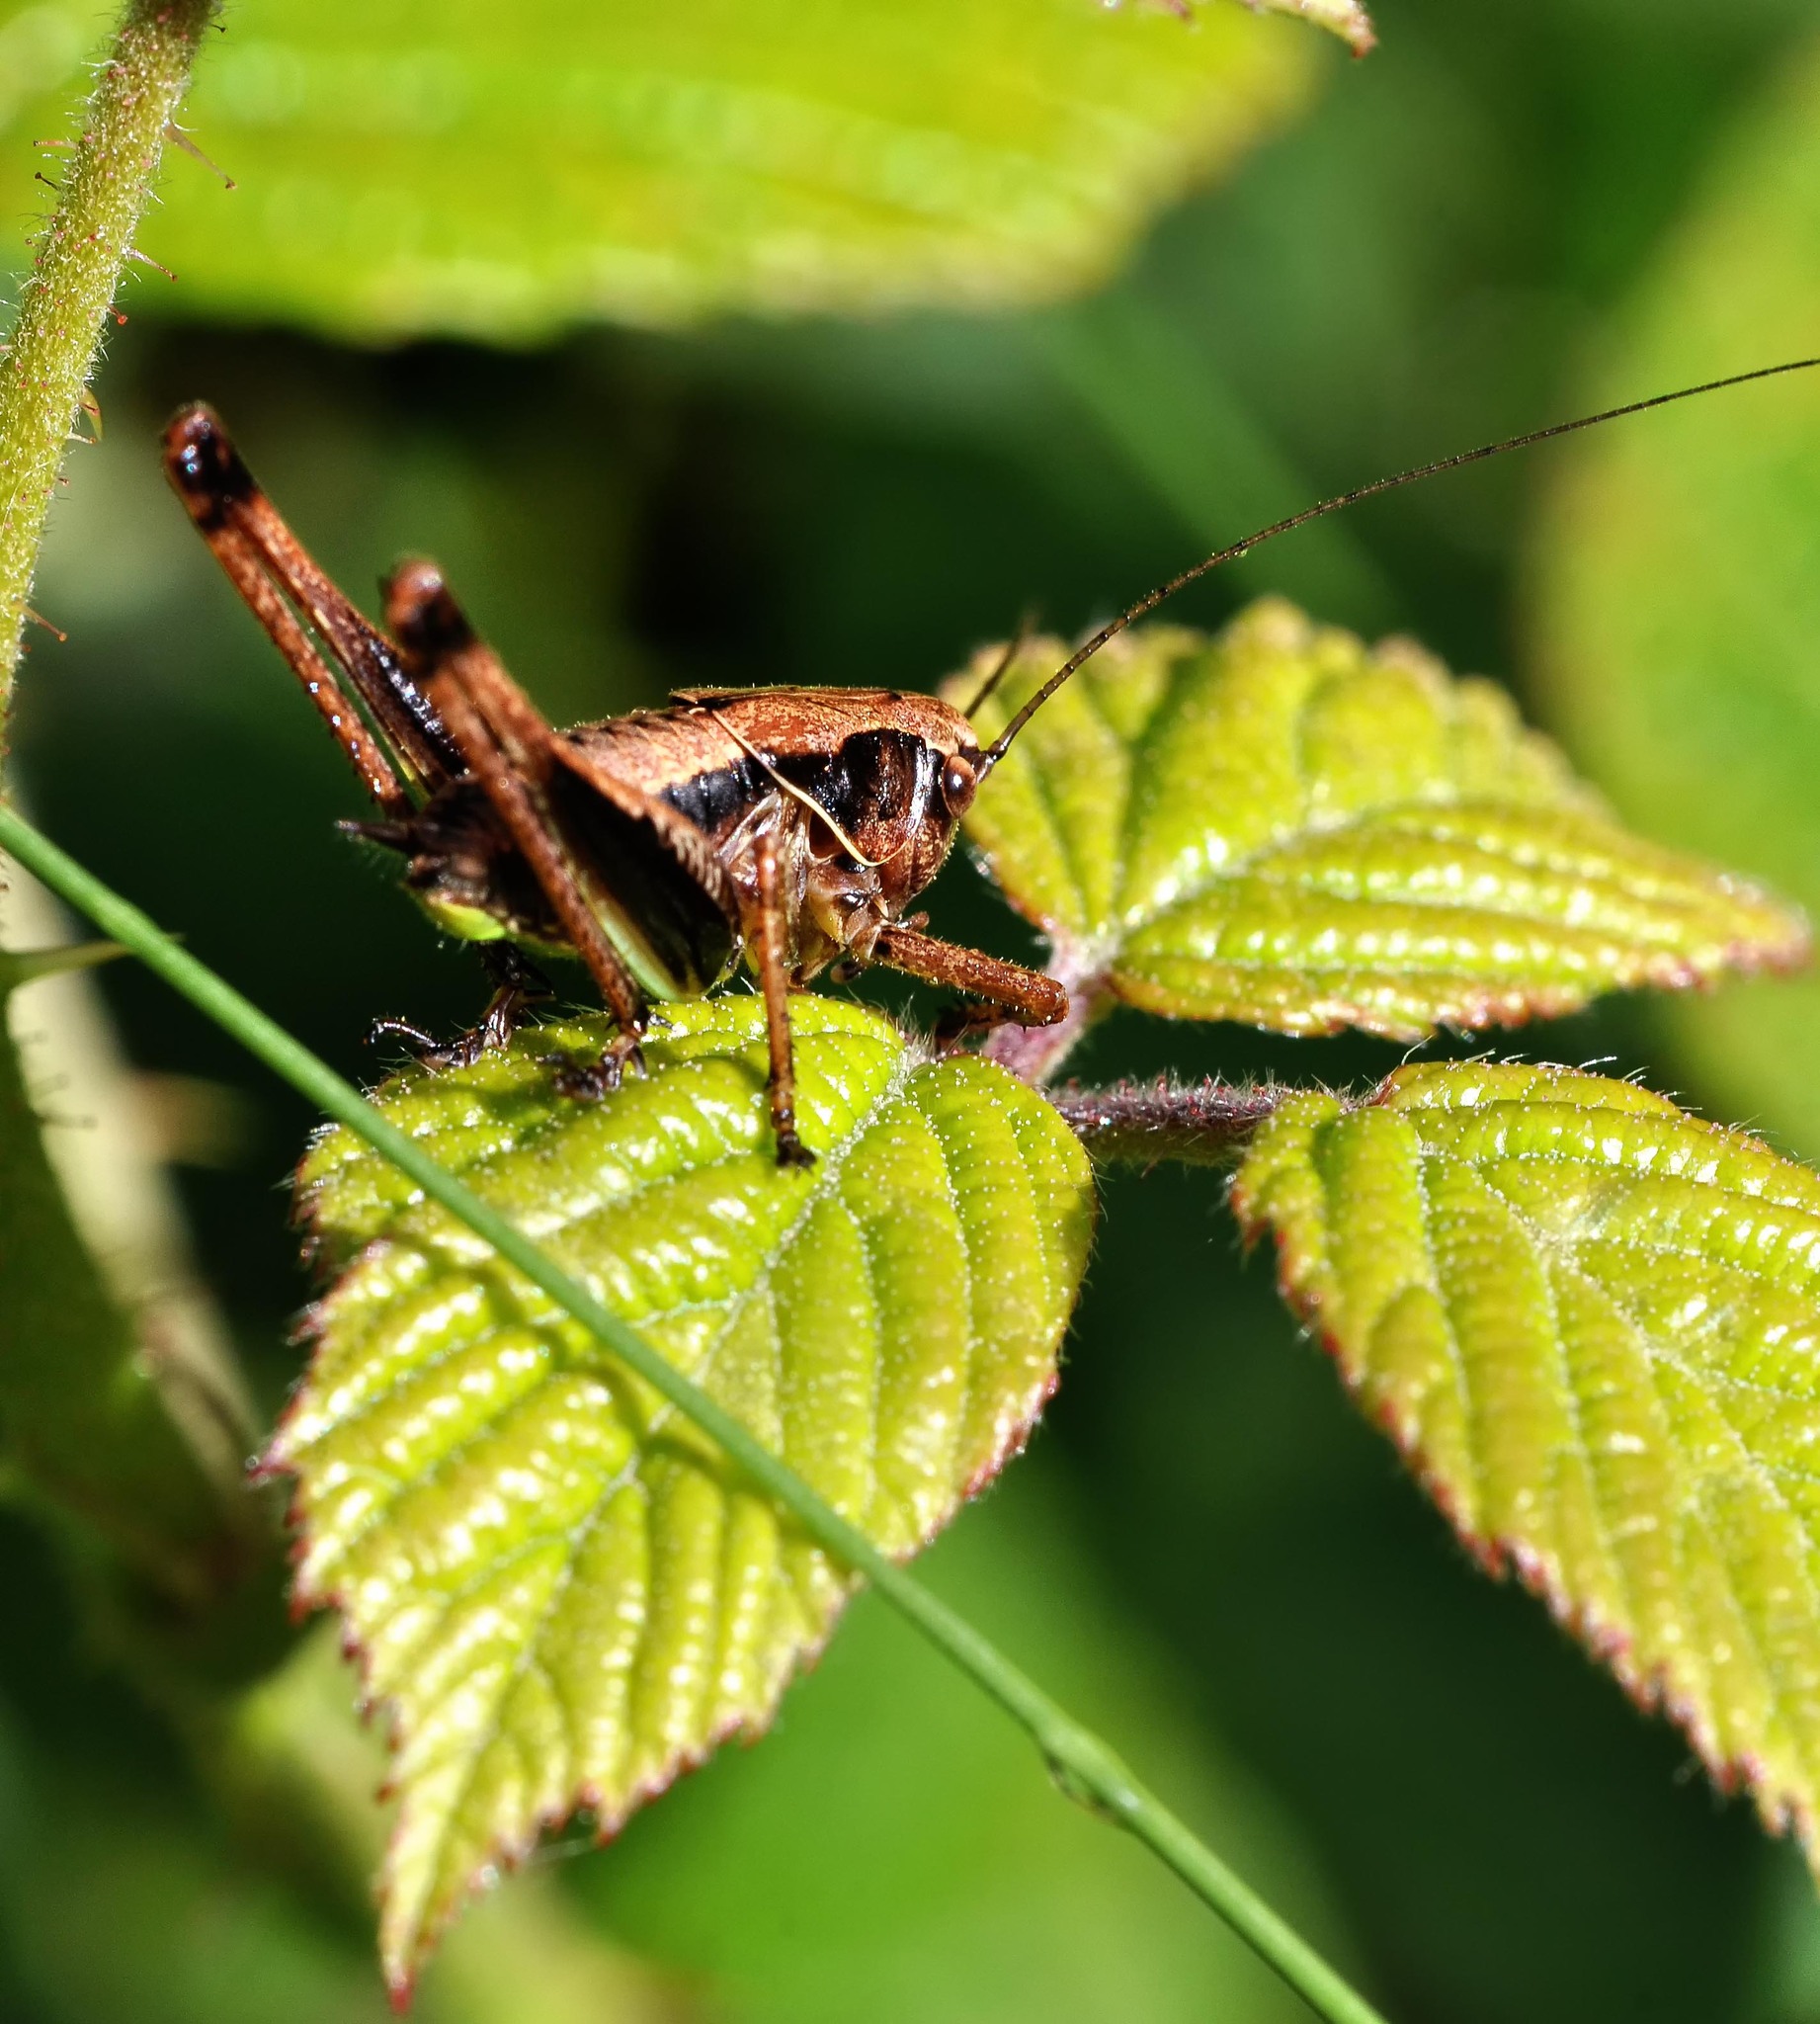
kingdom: Animalia
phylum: Arthropoda
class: Insecta
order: Orthoptera
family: Tettigoniidae
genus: Pholidoptera
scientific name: Pholidoptera griseoaptera
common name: Dark bush-cricket
